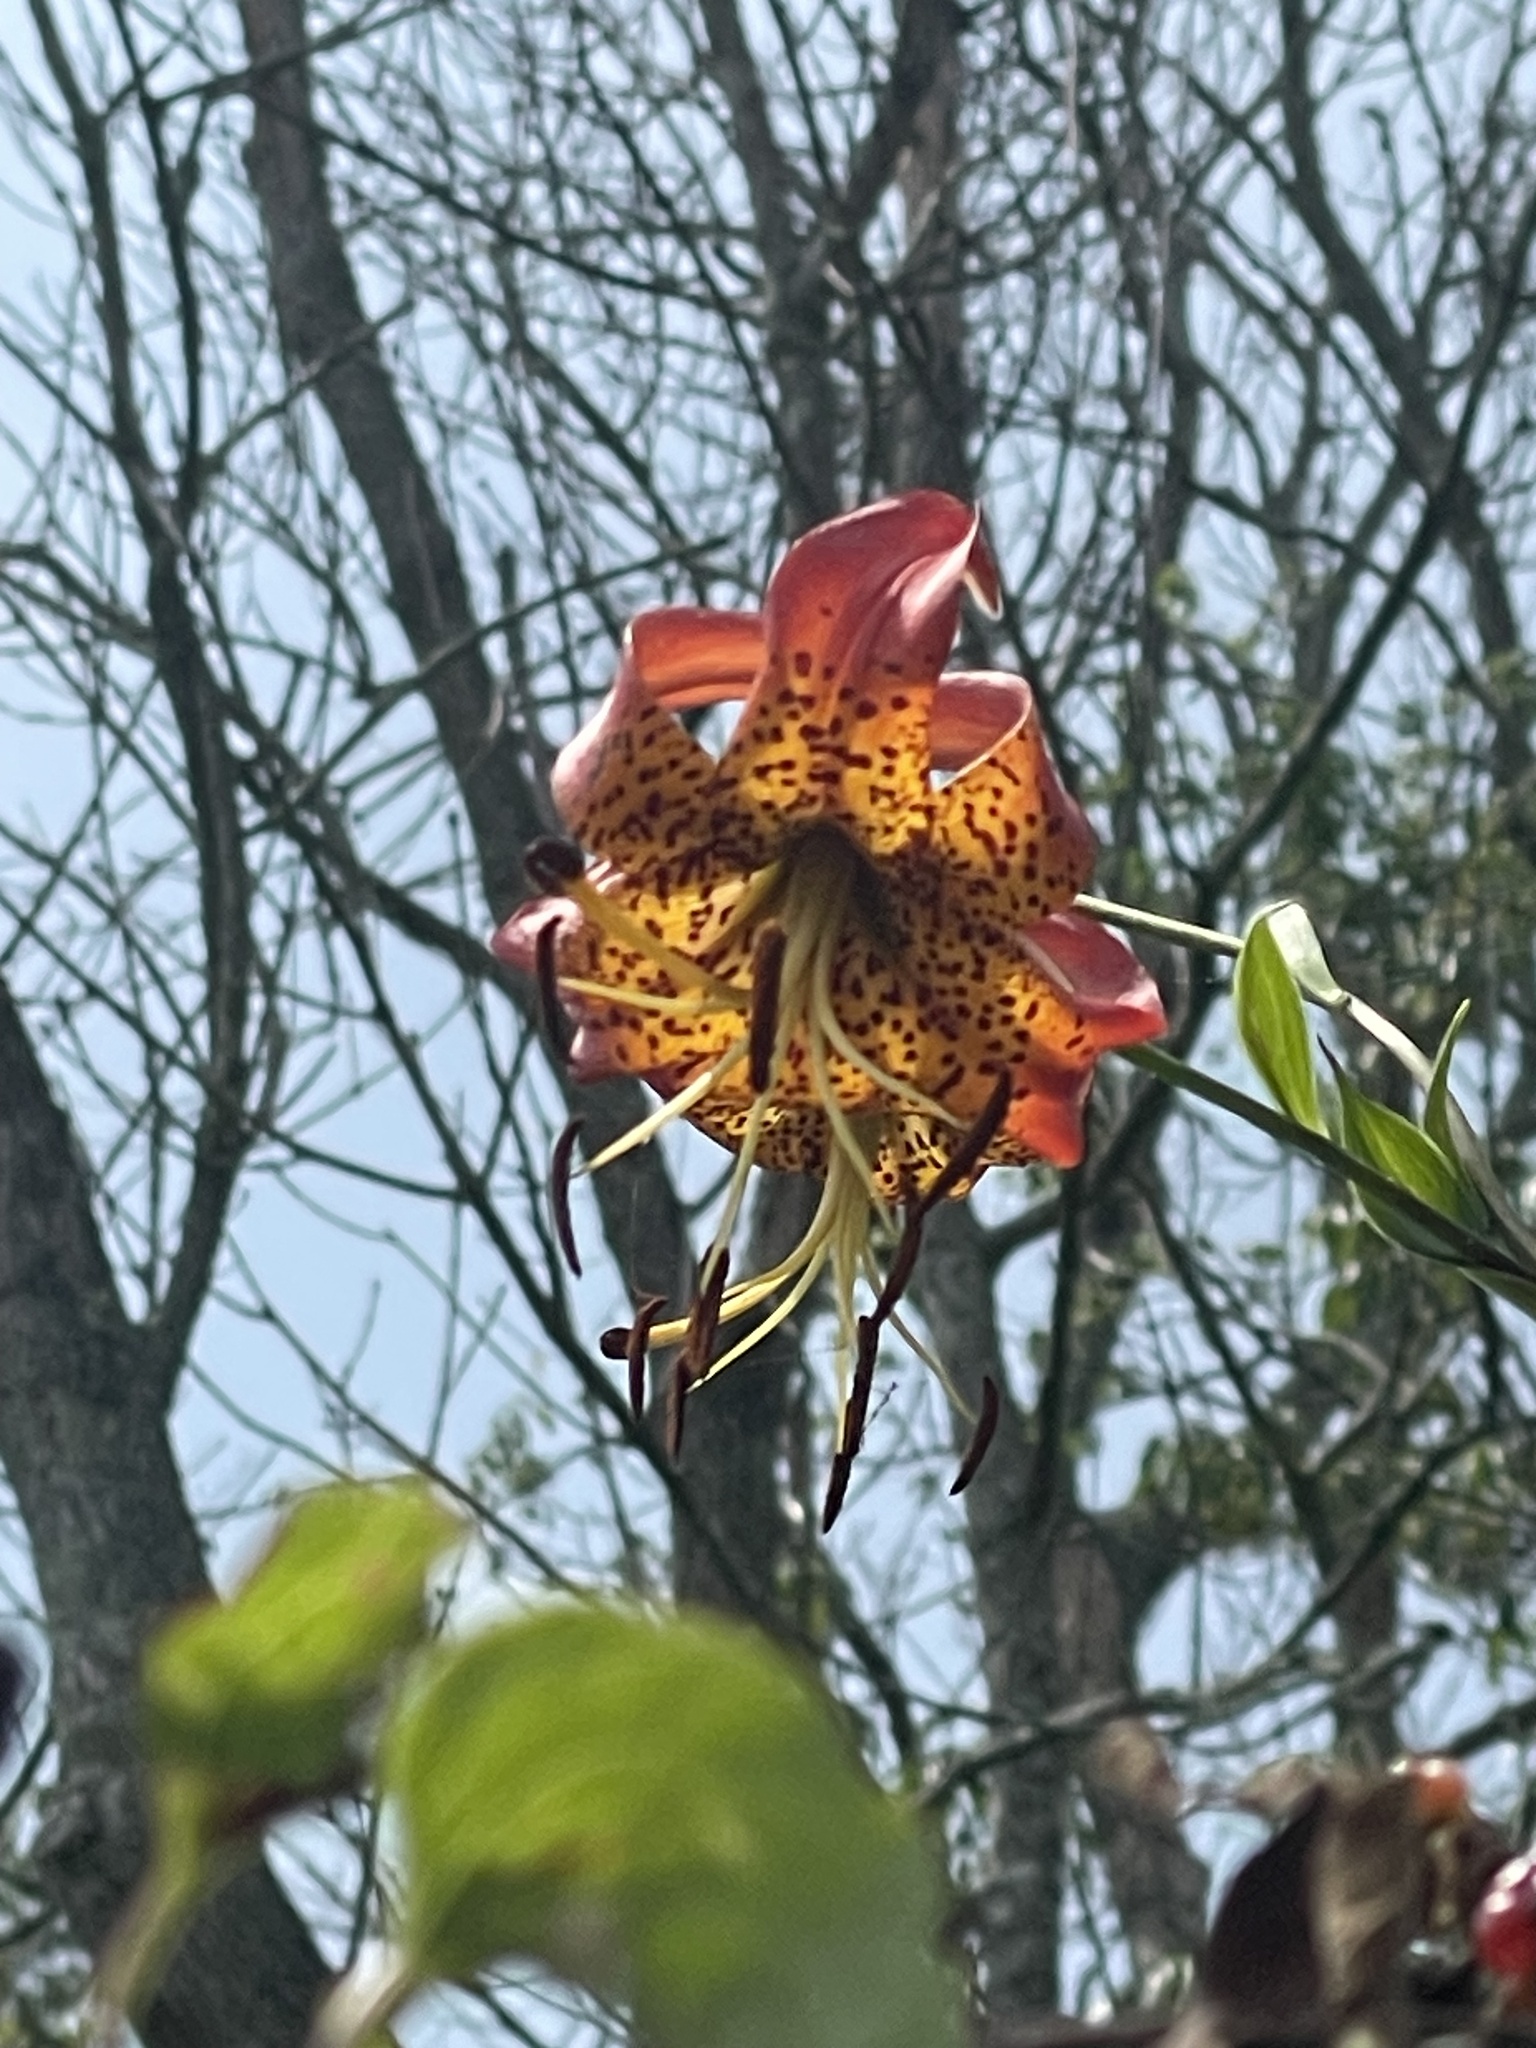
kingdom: Plantae
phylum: Tracheophyta
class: Liliopsida
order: Liliales
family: Liliaceae
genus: Lilium
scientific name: Lilium superbum
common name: American turk's-cap lily
